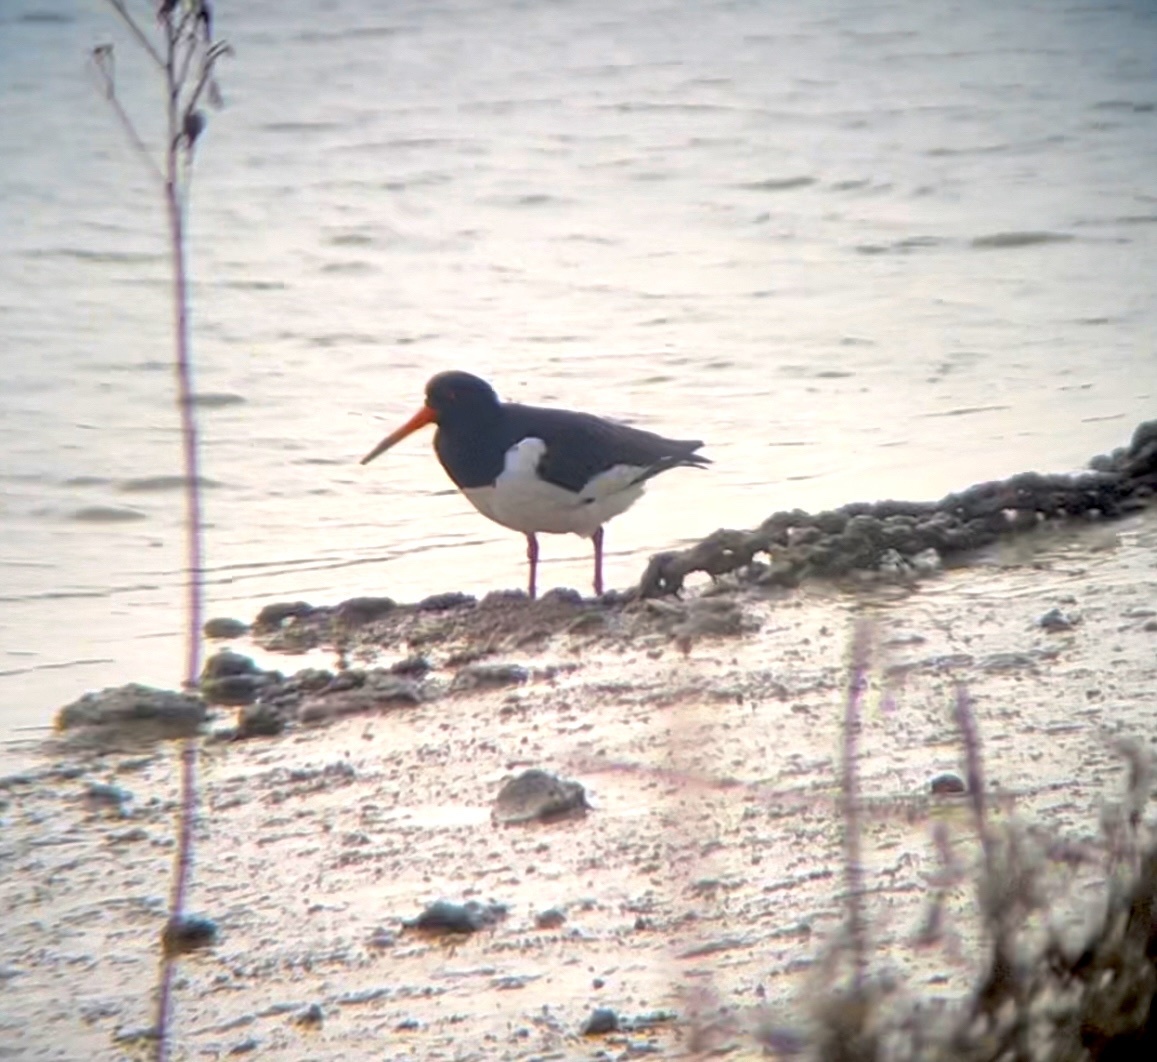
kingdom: Animalia
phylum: Chordata
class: Aves
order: Charadriiformes
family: Haematopodidae
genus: Haematopus
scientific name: Haematopus ostralegus
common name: Eurasian oystercatcher
